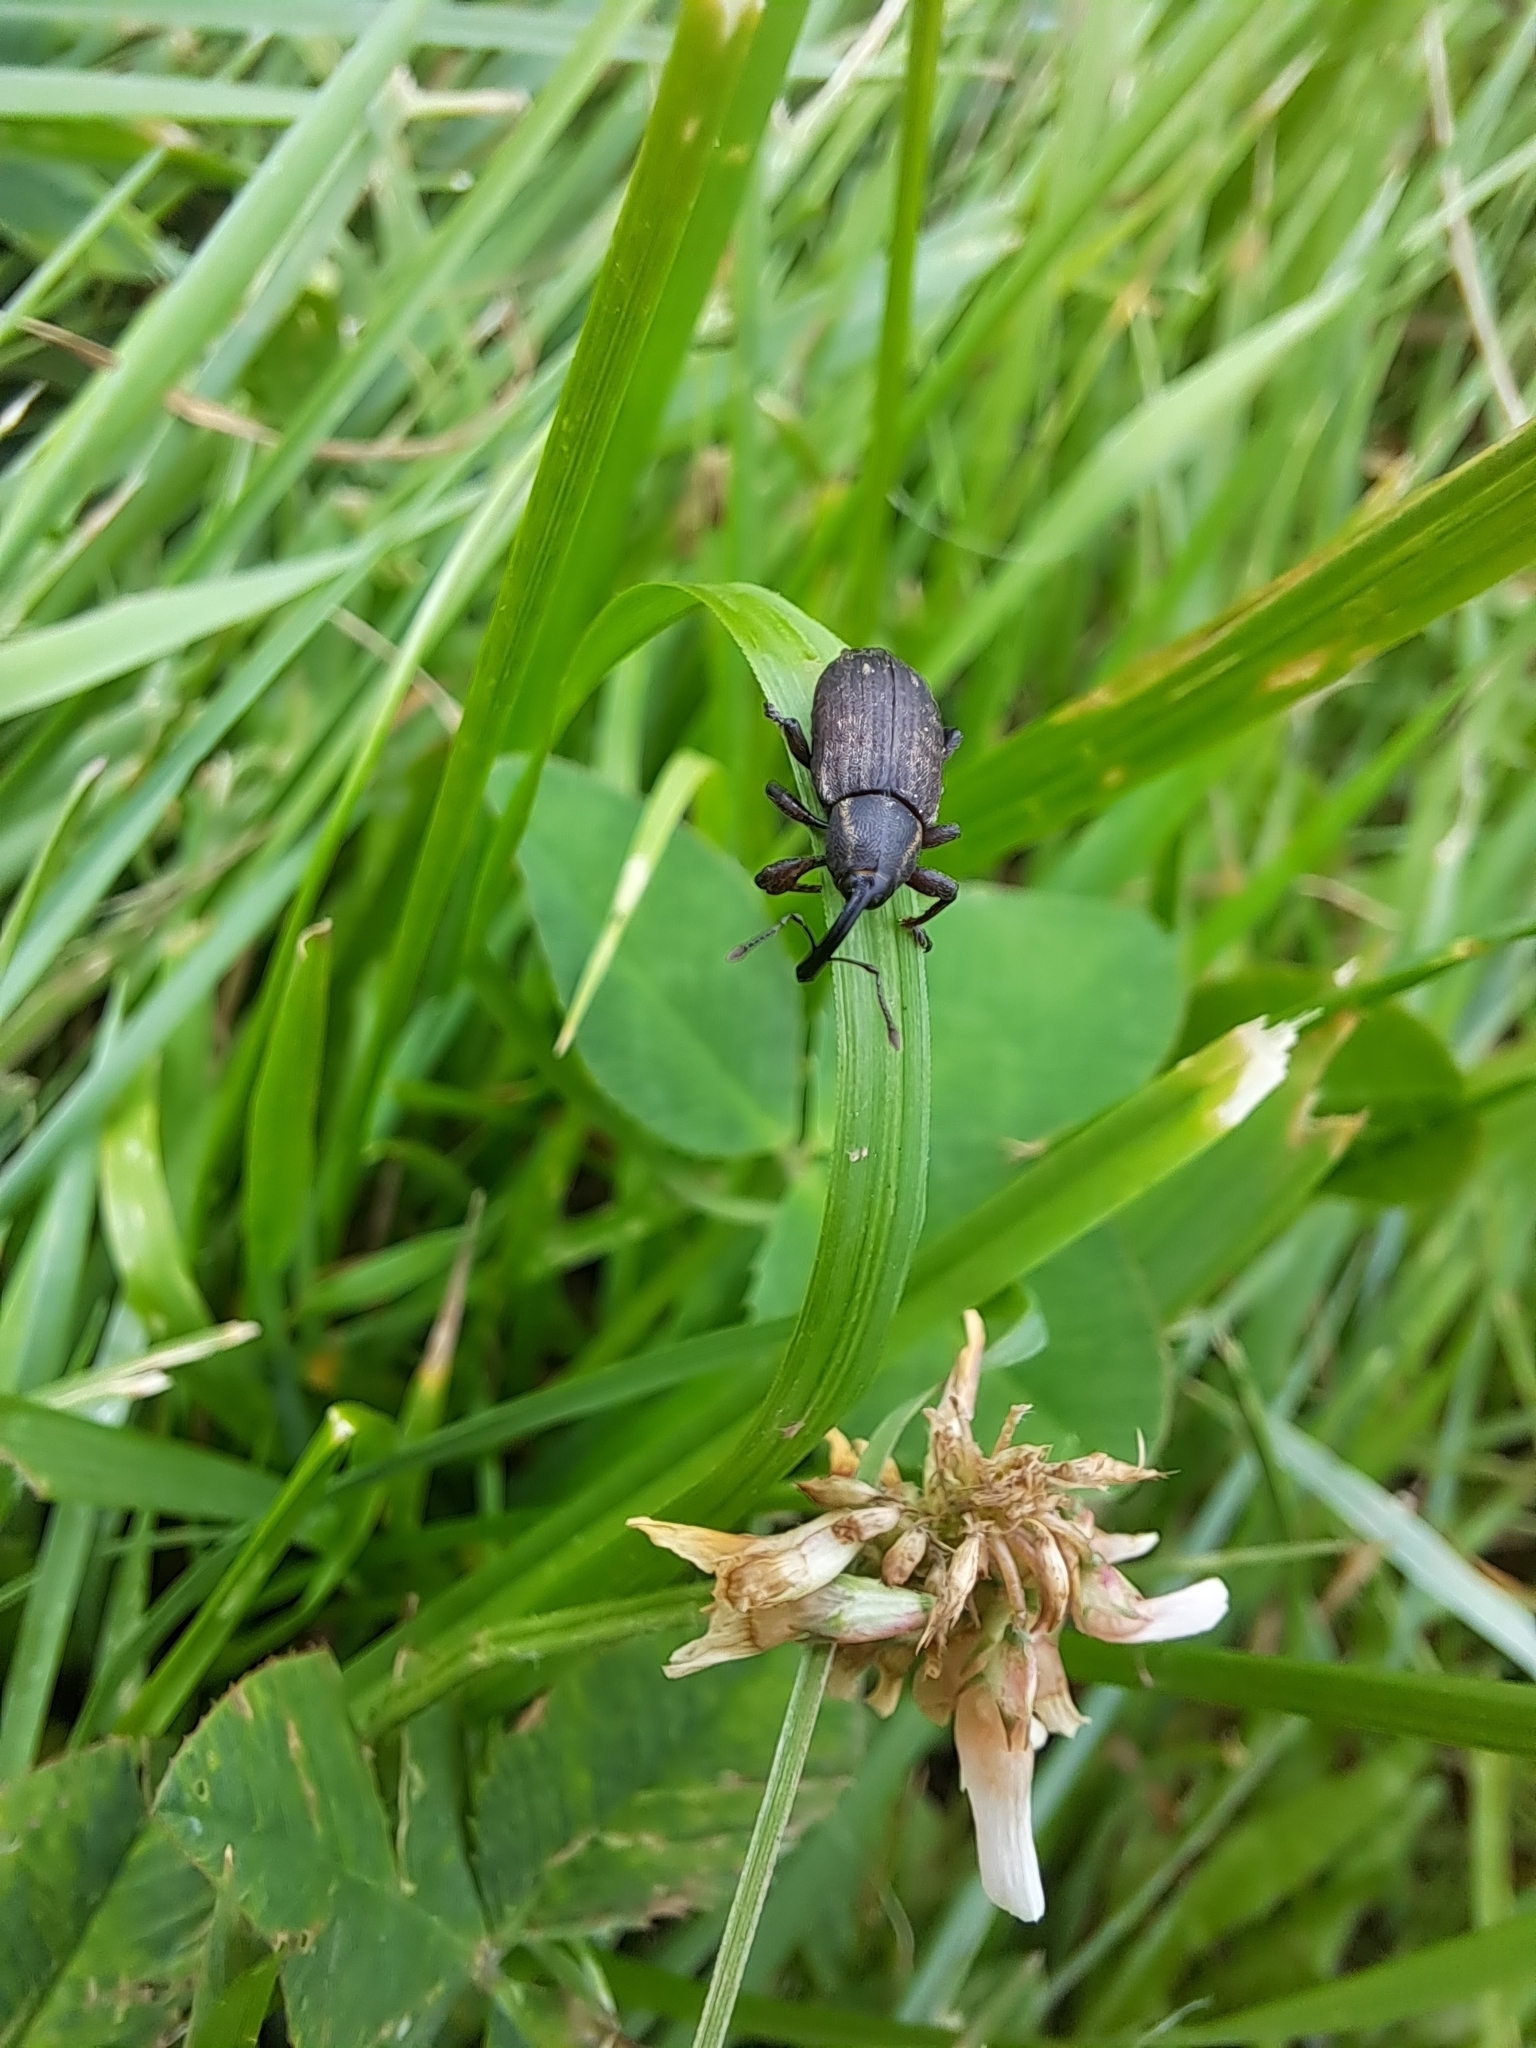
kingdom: Animalia
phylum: Arthropoda
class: Insecta
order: Coleoptera
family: Brachyceridae
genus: Tournotaris
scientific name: Tournotaris bimaculata
